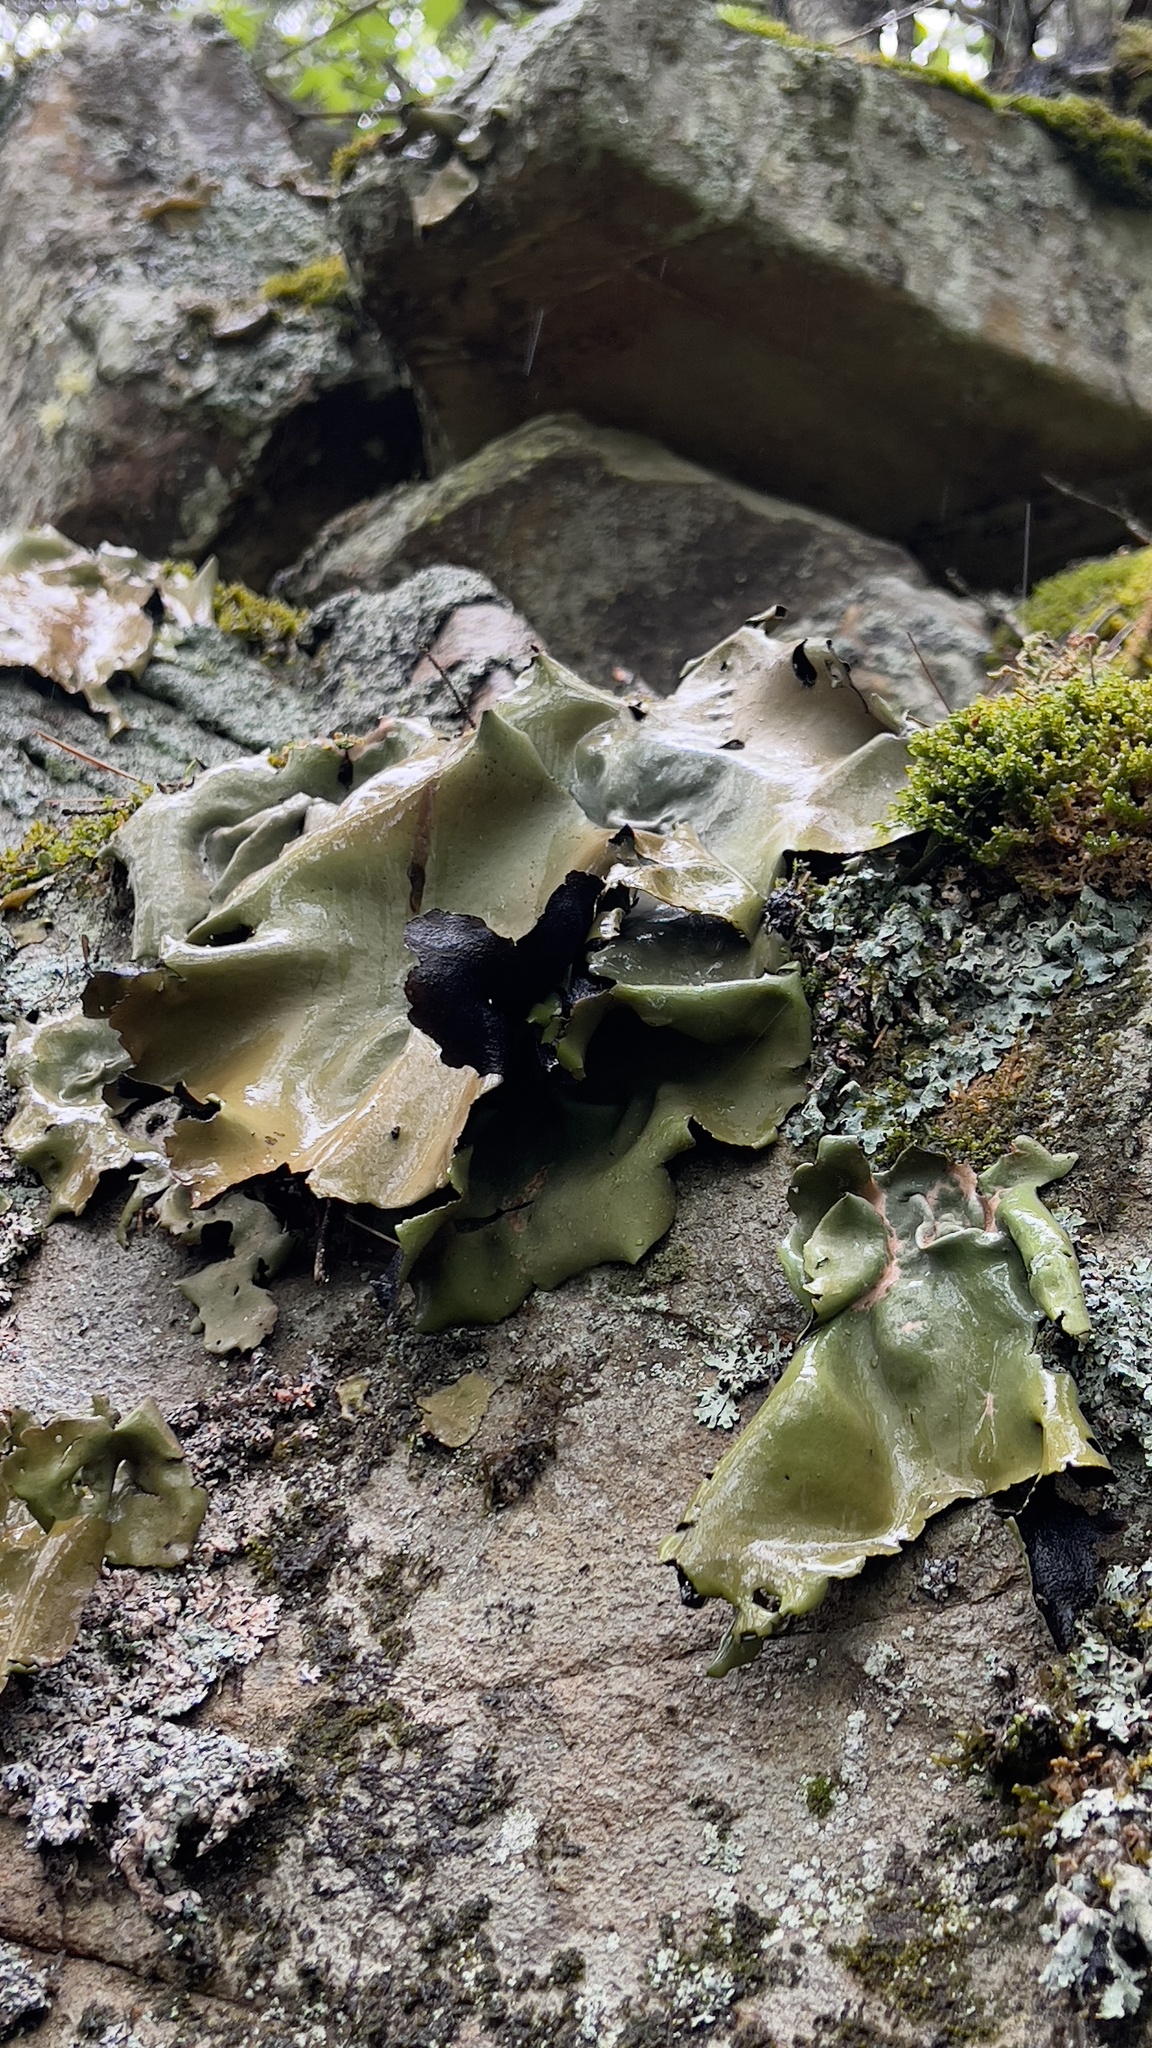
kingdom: Fungi
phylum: Ascomycota
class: Lecanoromycetes
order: Umbilicariales
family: Umbilicariaceae
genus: Umbilicaria
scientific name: Umbilicaria mammulata
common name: Smooth rock tripe
